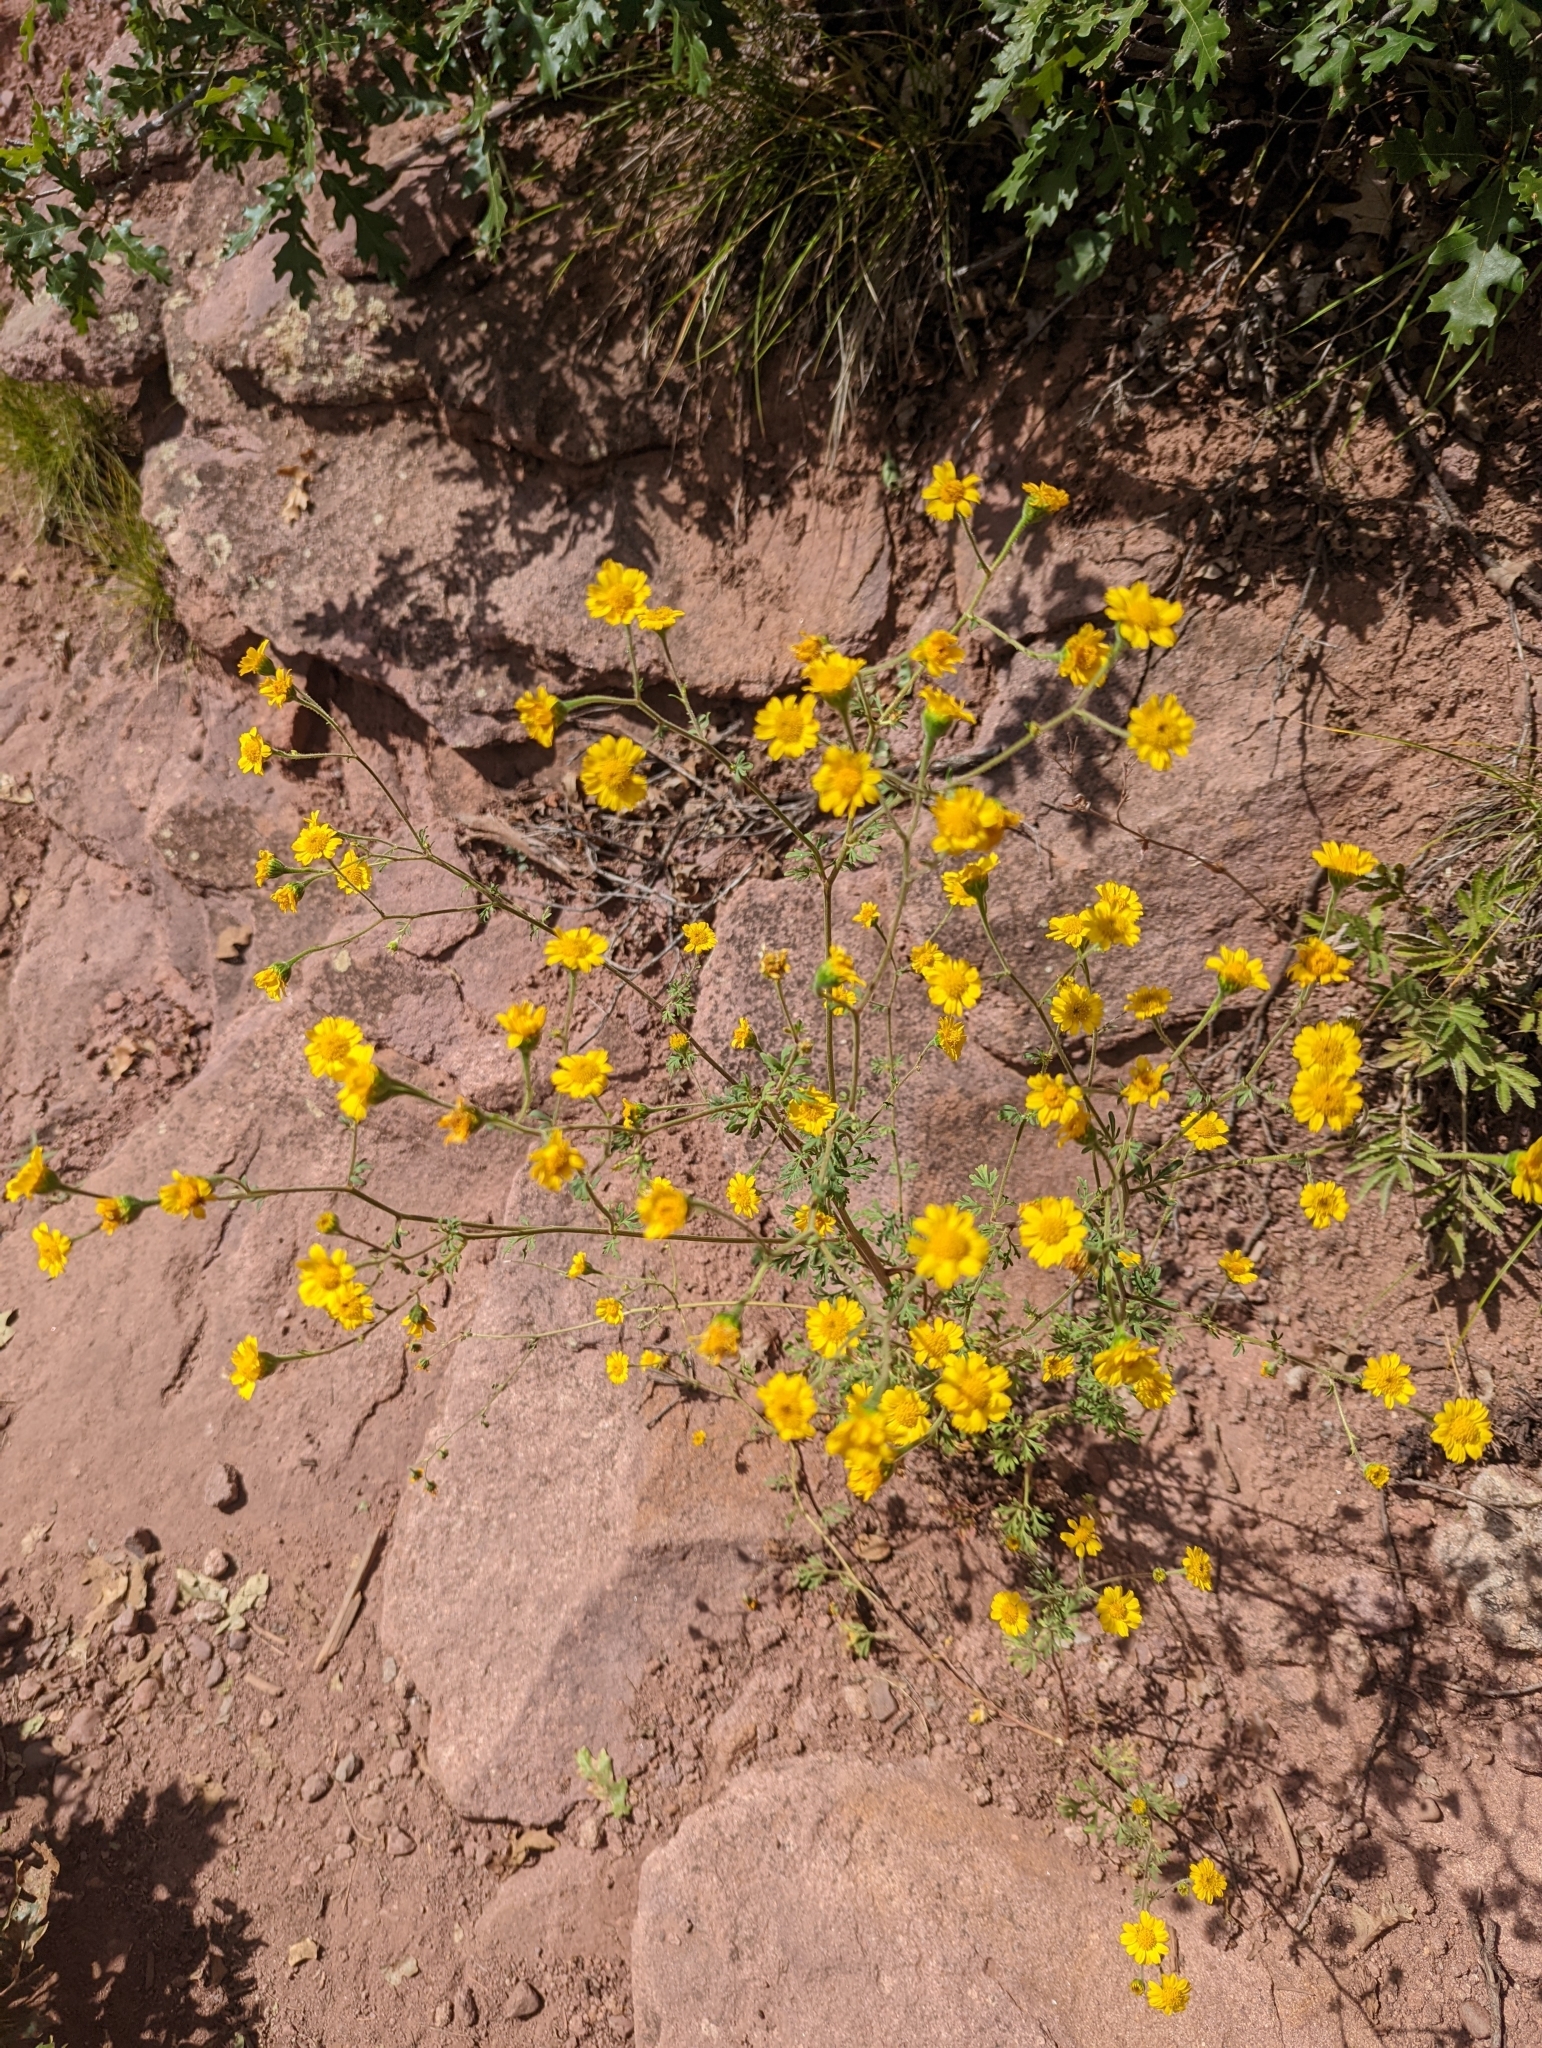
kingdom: Plantae
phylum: Tracheophyta
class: Magnoliopsida
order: Asterales
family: Asteraceae
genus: Hymenothrix
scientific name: Hymenothrix dissecta
